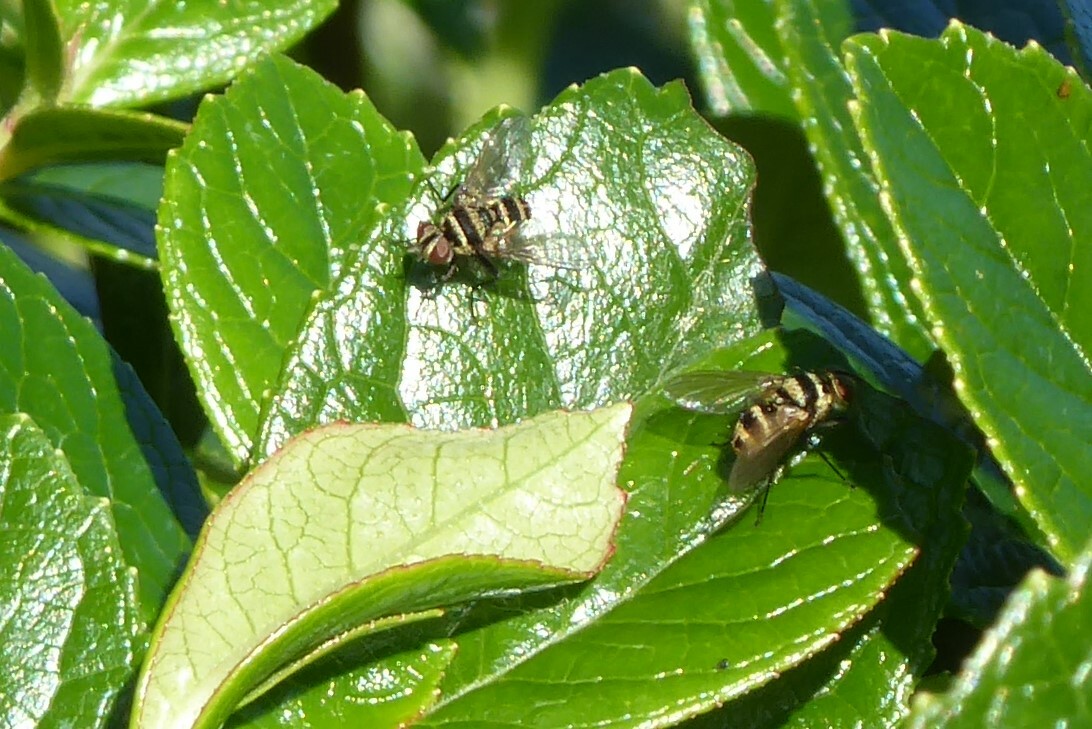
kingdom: Animalia
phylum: Arthropoda
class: Insecta
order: Diptera
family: Tachinidae
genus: Trigonospila
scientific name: Trigonospila brevifacies
